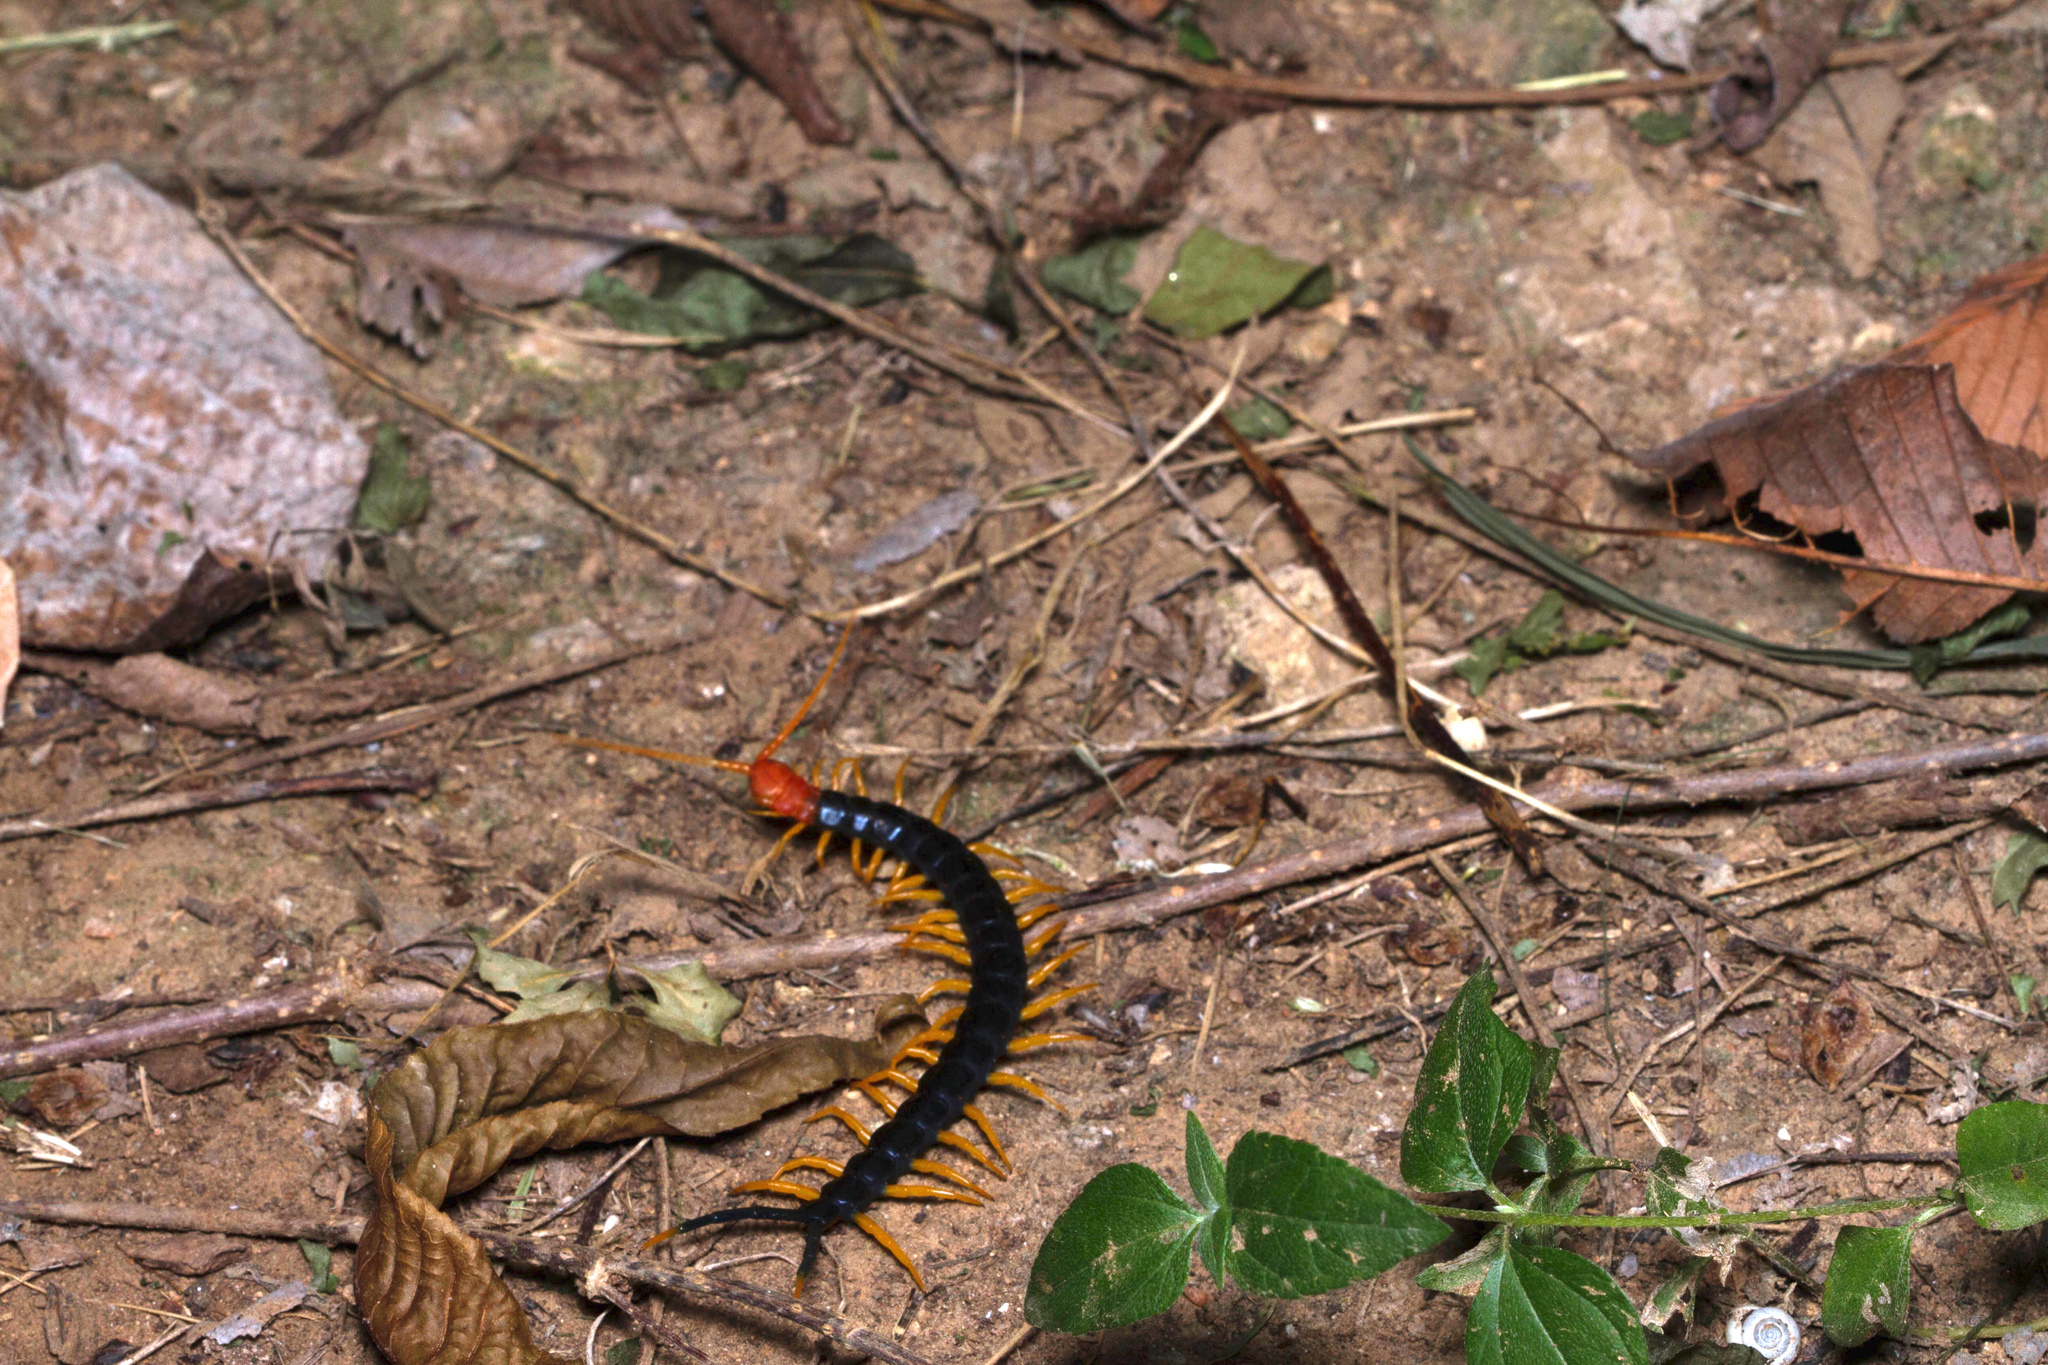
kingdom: Animalia
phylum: Arthropoda
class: Chilopoda
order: Scolopendromorpha
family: Scolopendridae
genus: Scolopendra
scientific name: Scolopendra heros
